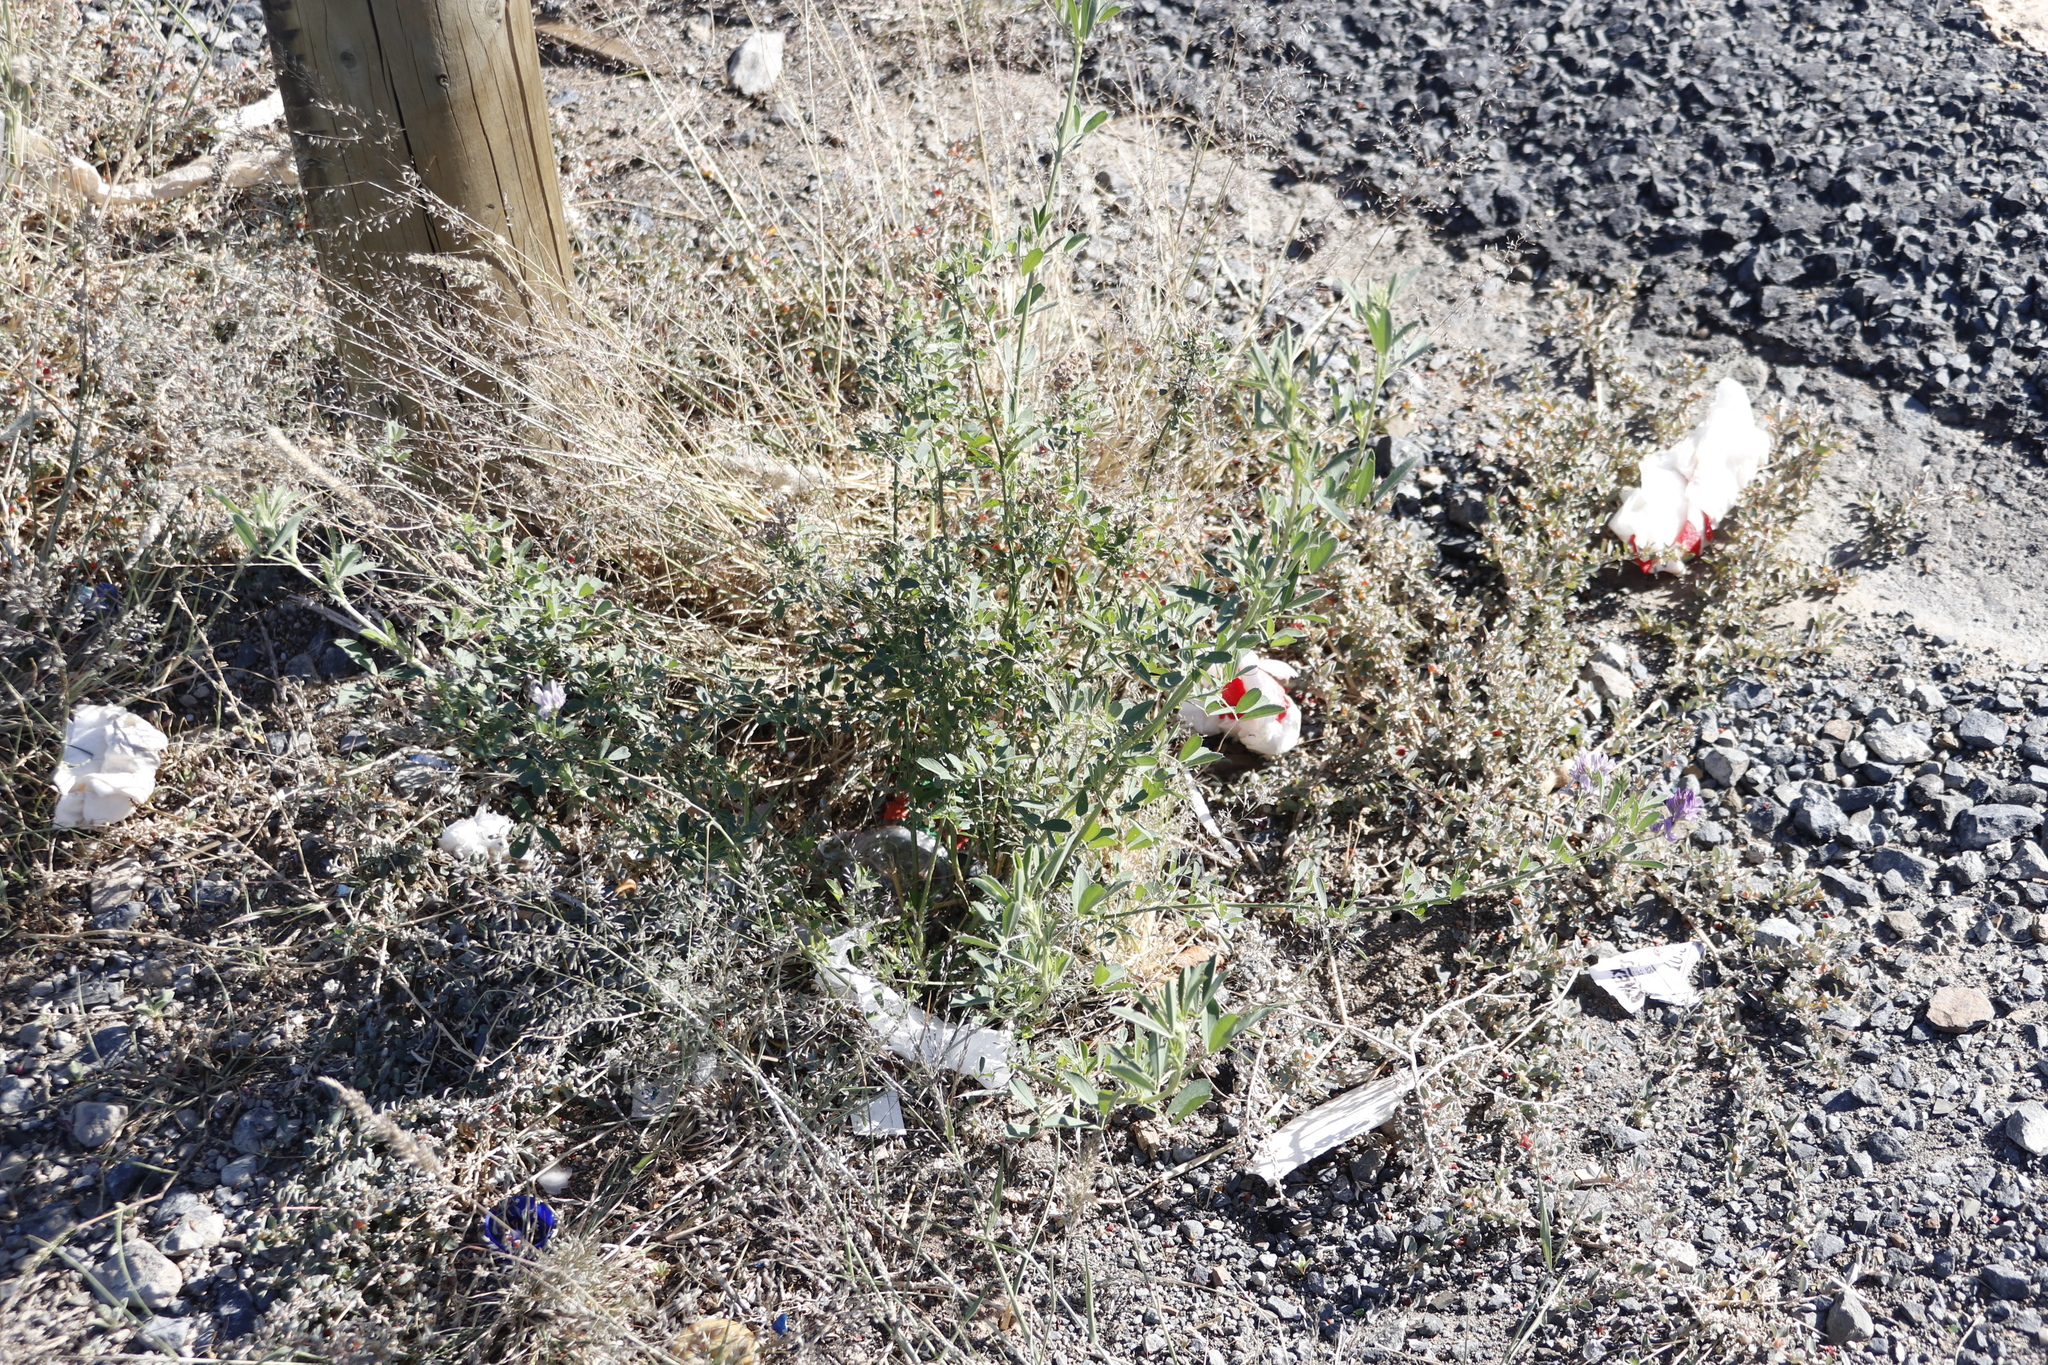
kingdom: Plantae
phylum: Tracheophyta
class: Magnoliopsida
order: Fabales
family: Fabaceae
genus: Medicago
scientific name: Medicago sativa
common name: Alfalfa
